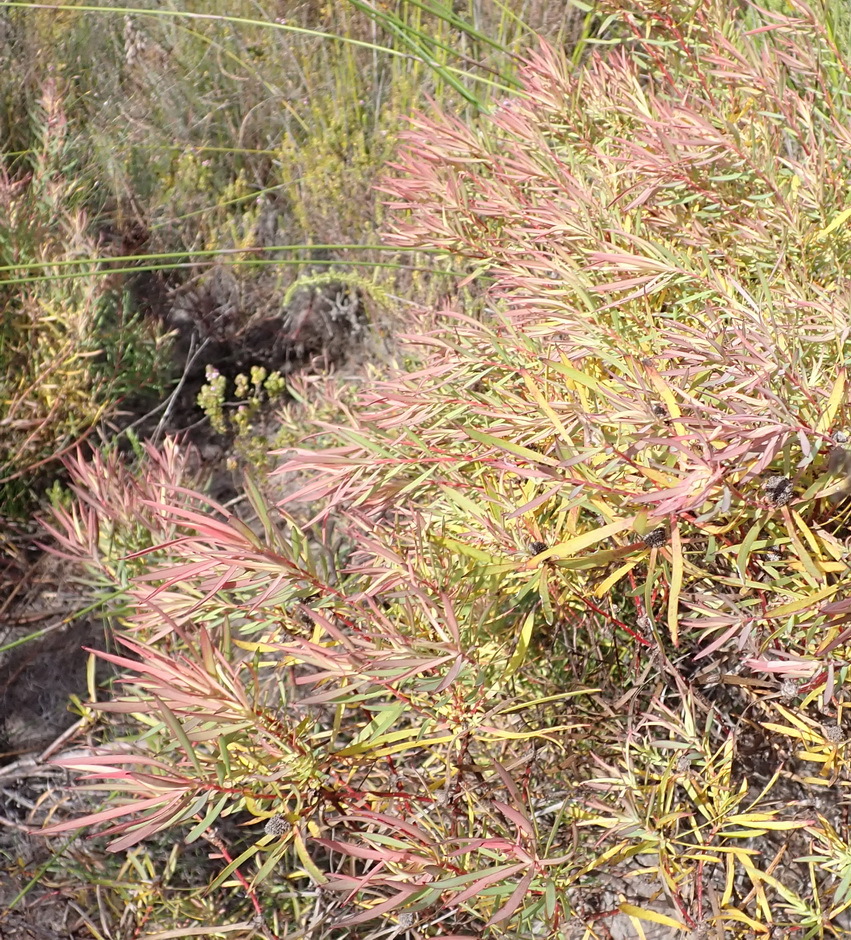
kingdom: Plantae
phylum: Tracheophyta
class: Magnoliopsida
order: Proteales
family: Proteaceae
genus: Leucadendron
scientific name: Leucadendron salignum
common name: Common sunshine conebush
